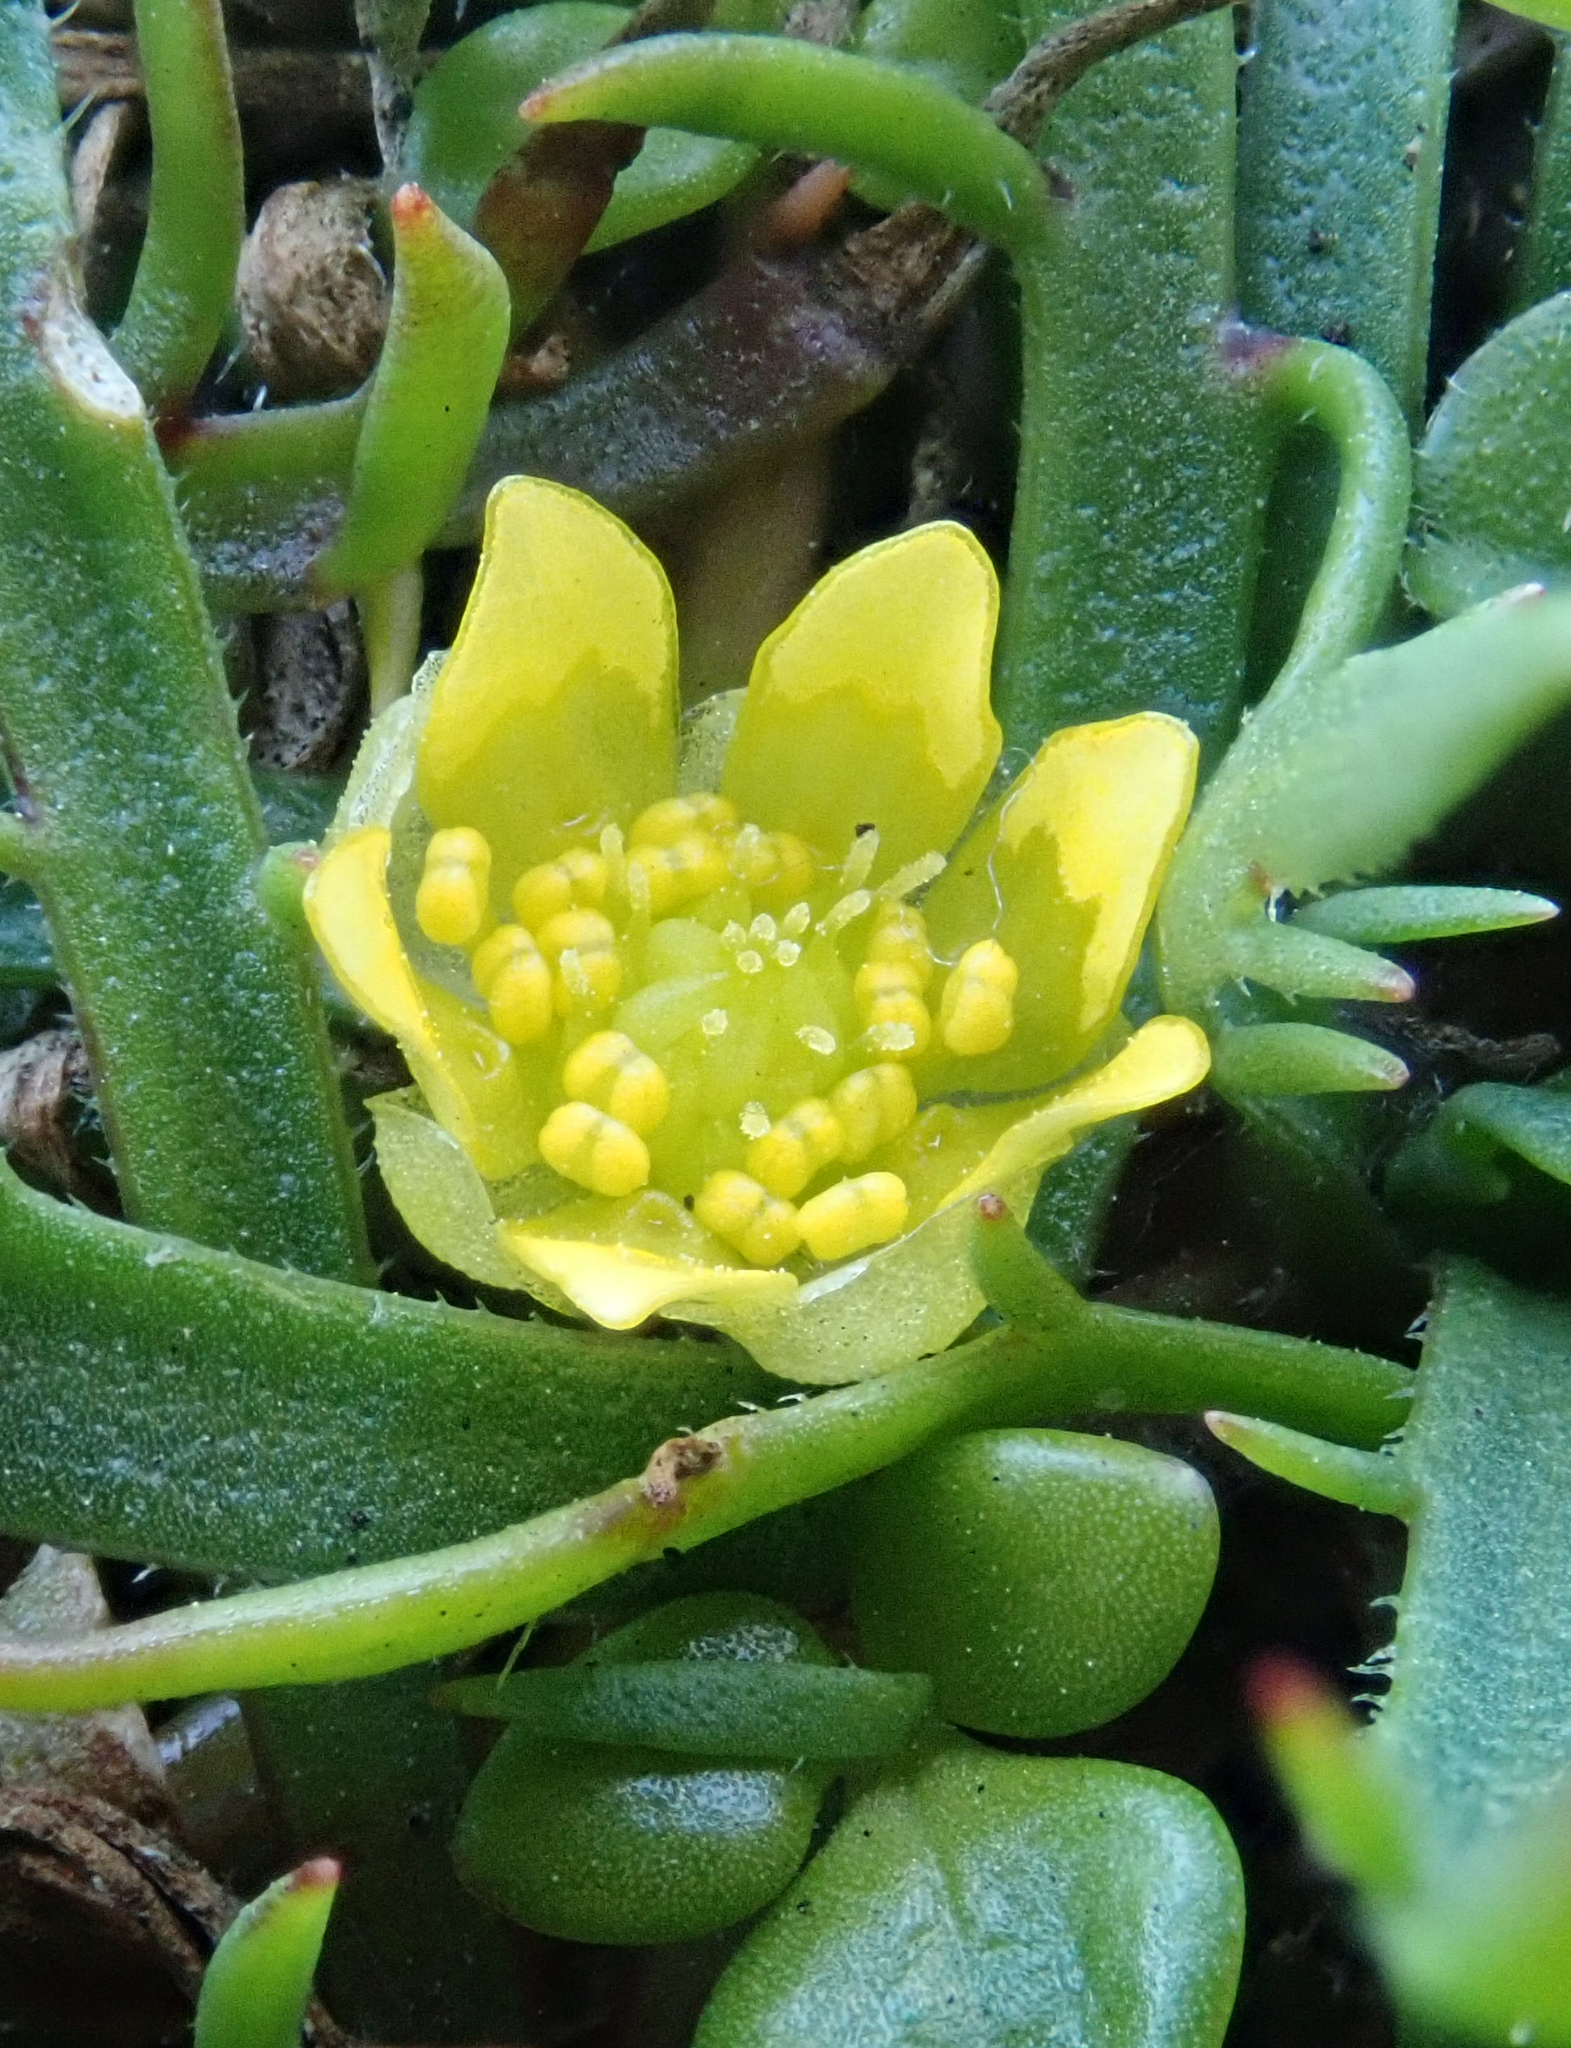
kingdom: Plantae
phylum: Tracheophyta
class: Magnoliopsida
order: Ranunculales
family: Ranunculaceae
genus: Ranunculus
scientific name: Ranunculus acaulis
